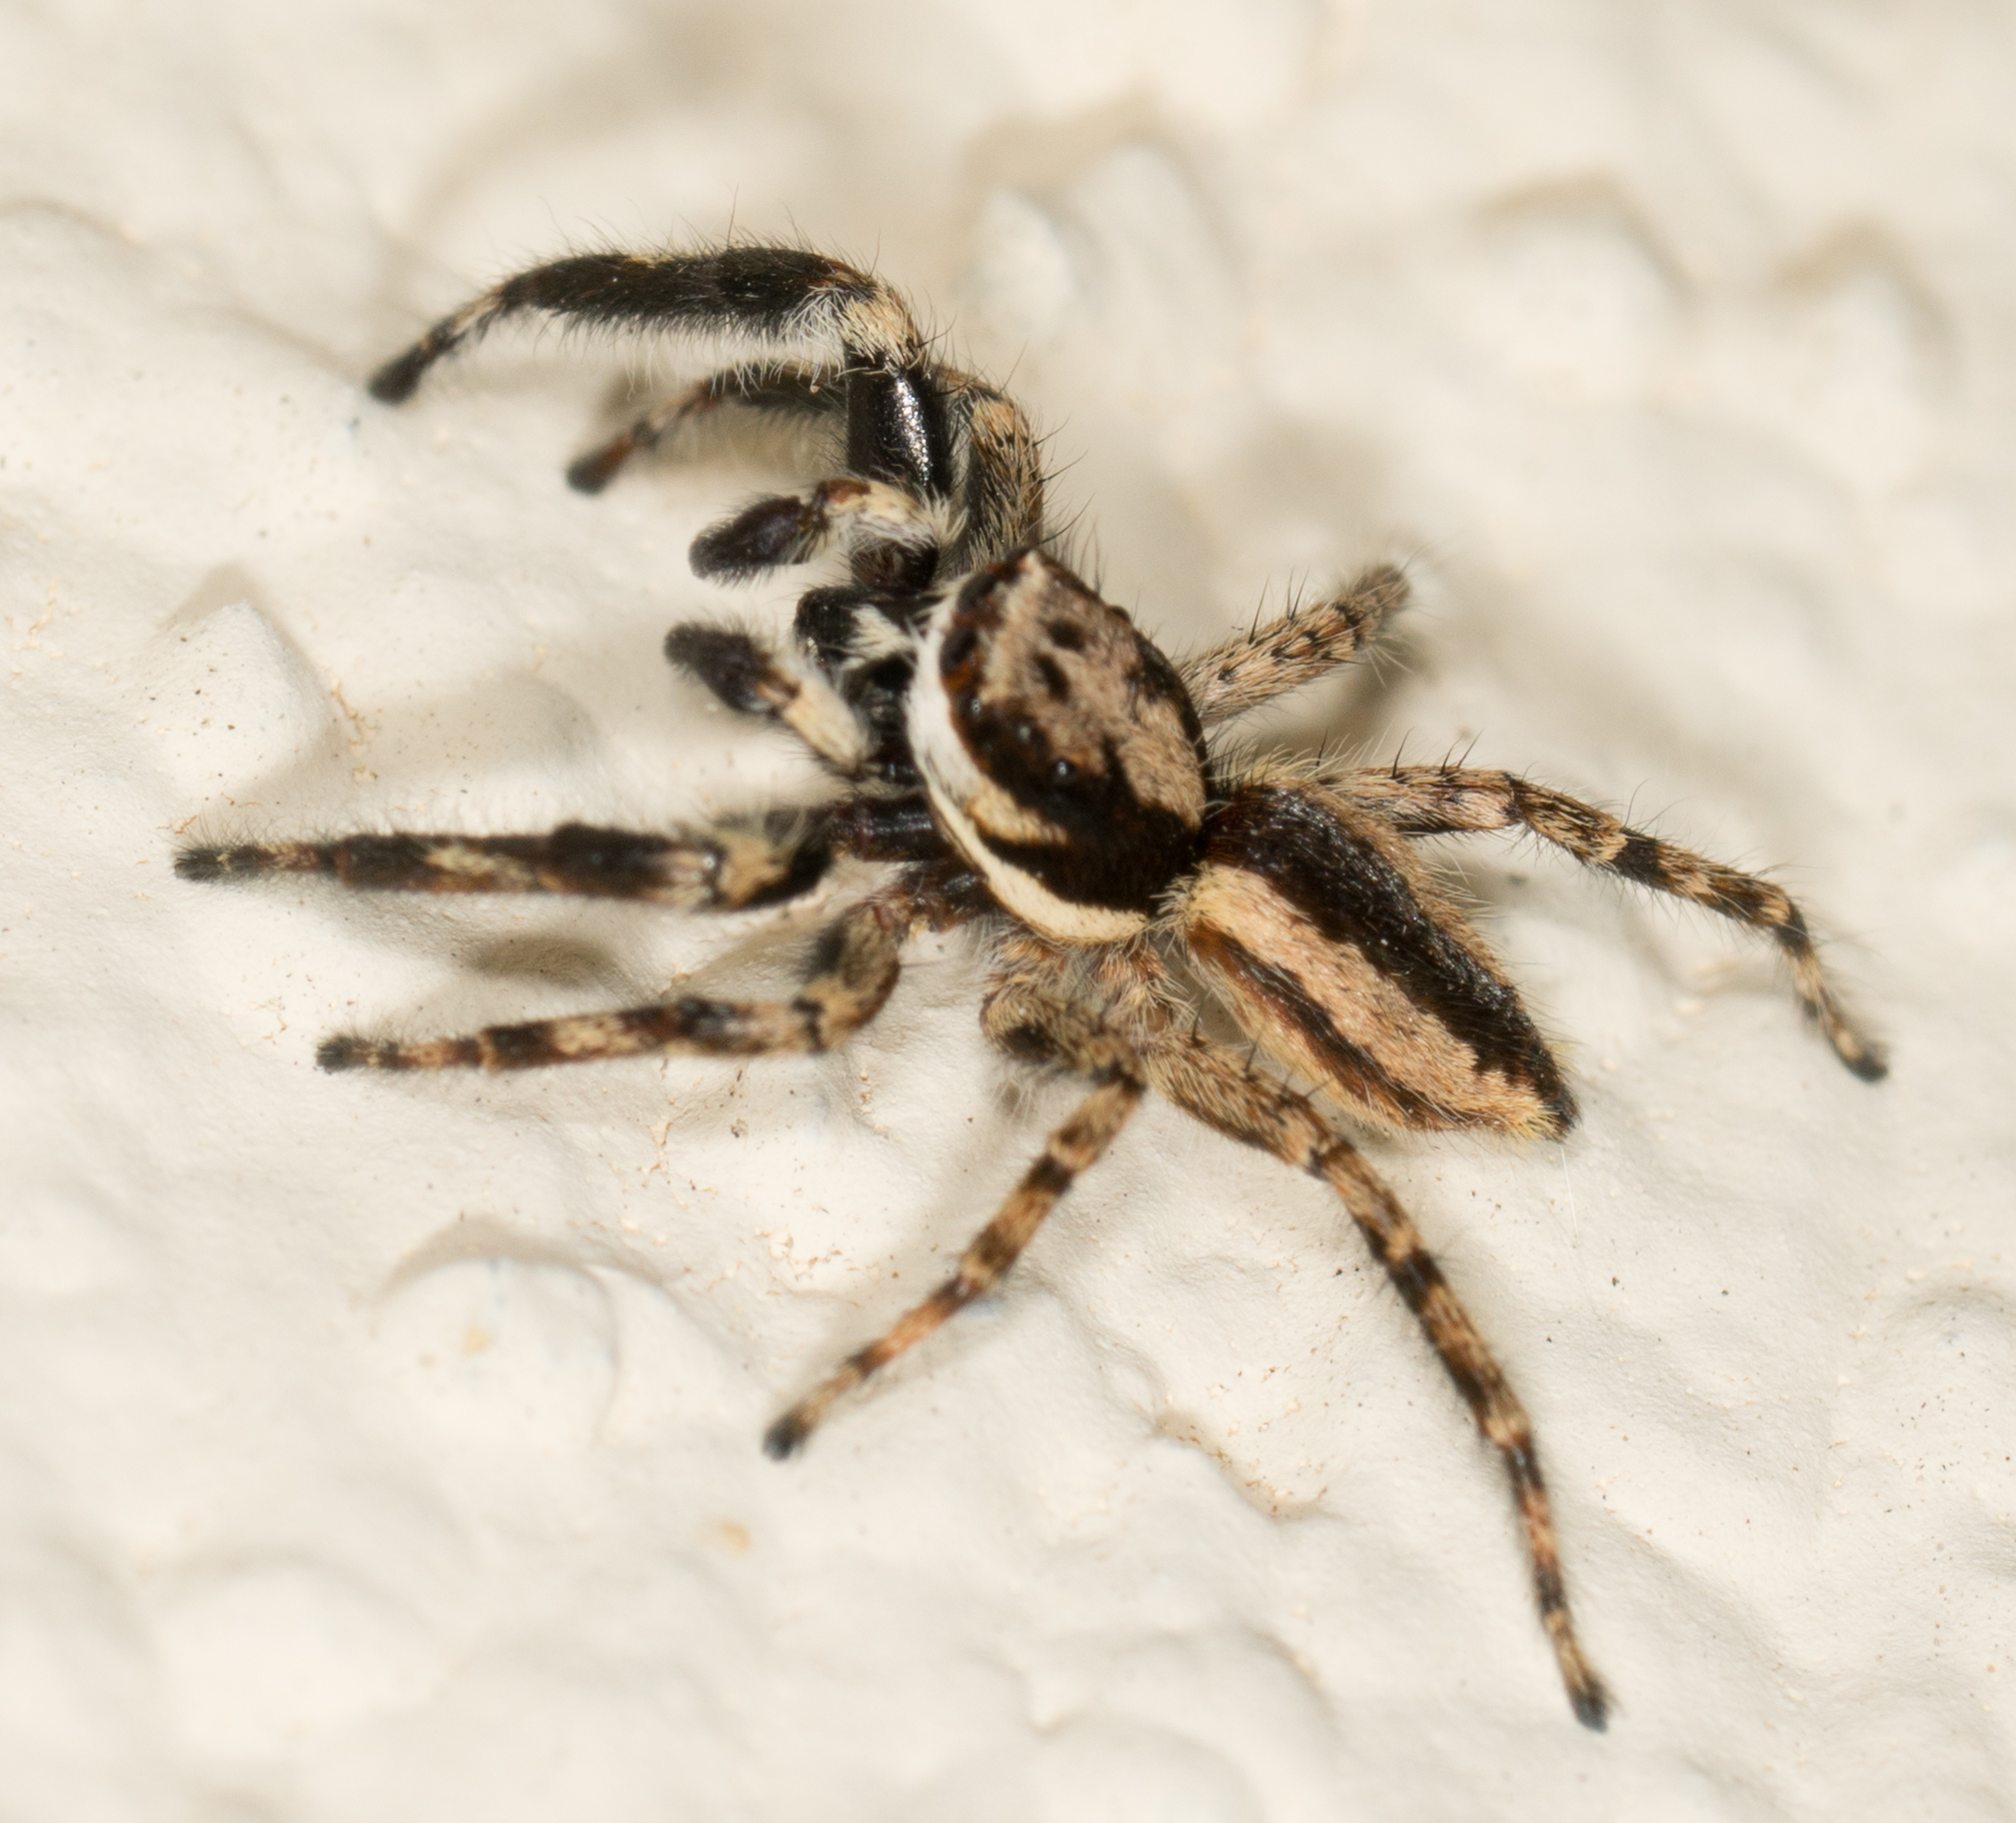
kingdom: Animalia
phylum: Arthropoda
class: Arachnida
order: Araneae
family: Salticidae
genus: Menemerus
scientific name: Menemerus bivittatus
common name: Gray wall jumper
